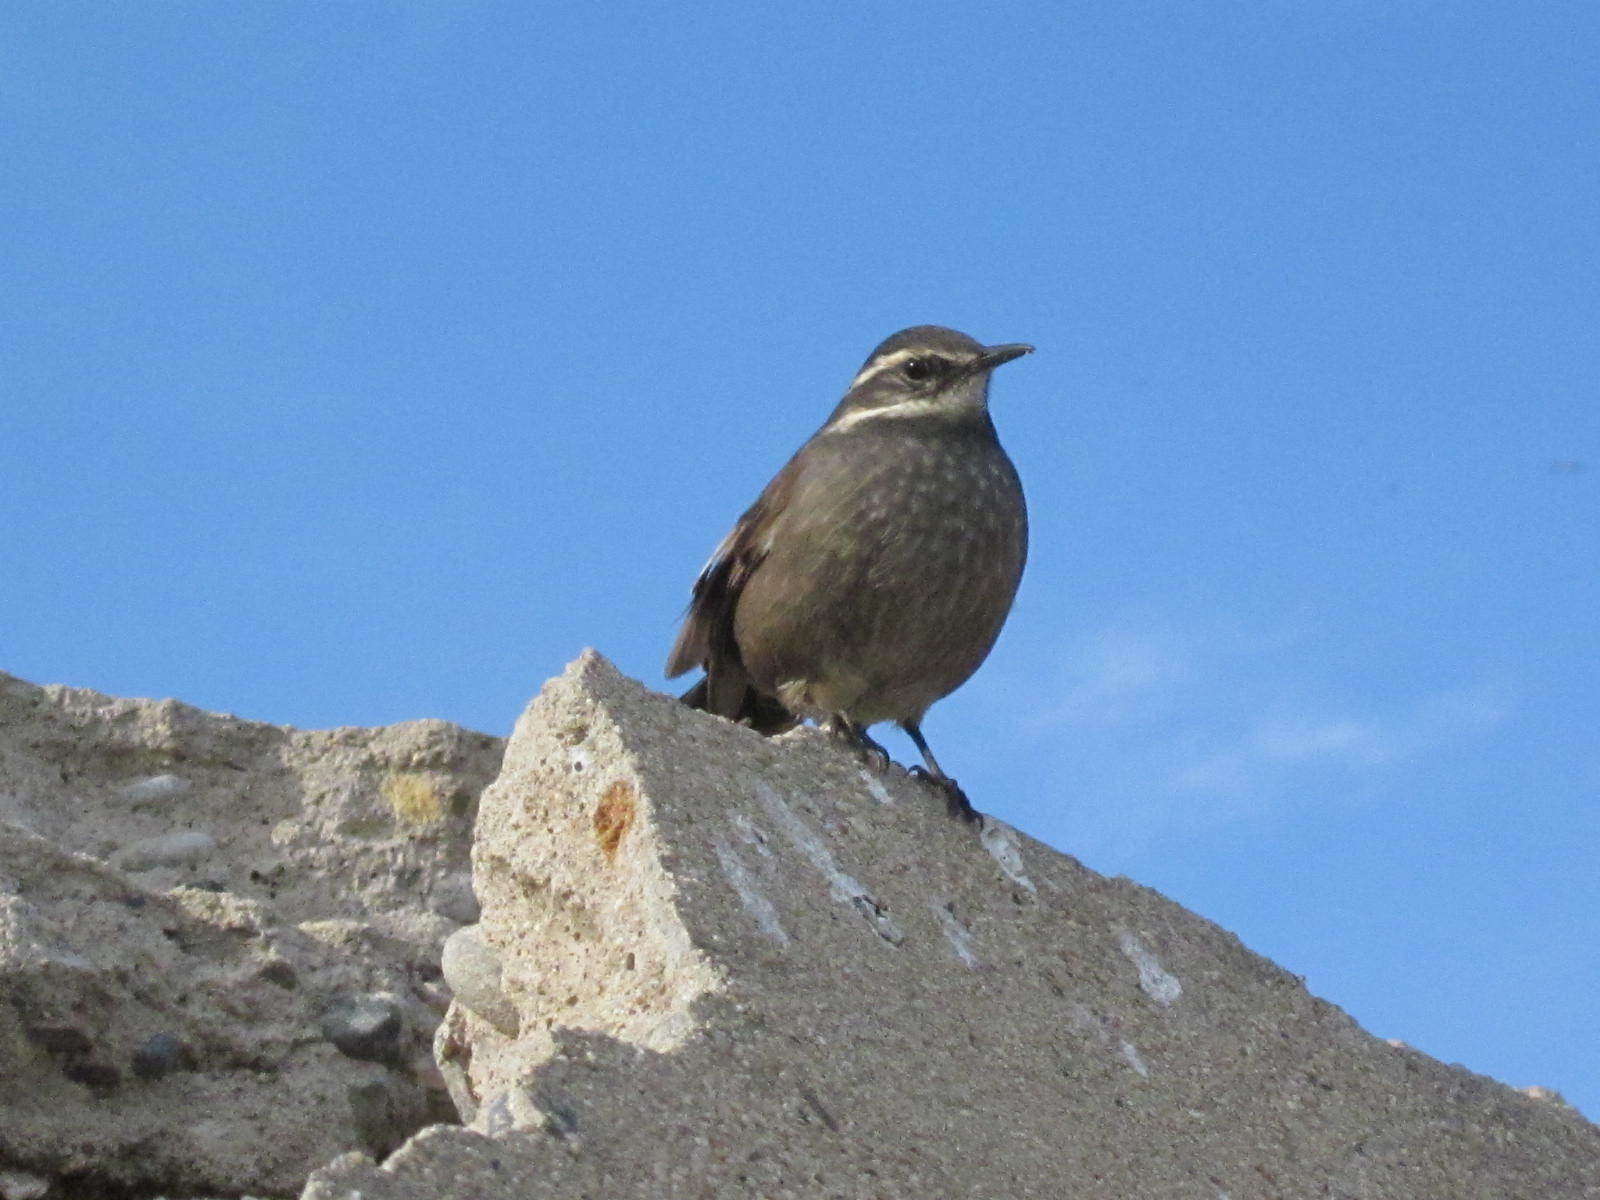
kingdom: Animalia
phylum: Chordata
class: Aves
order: Passeriformes
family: Furnariidae
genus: Cinclodes
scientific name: Cinclodes oustaleti
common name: Grey-flanked cinclodes
